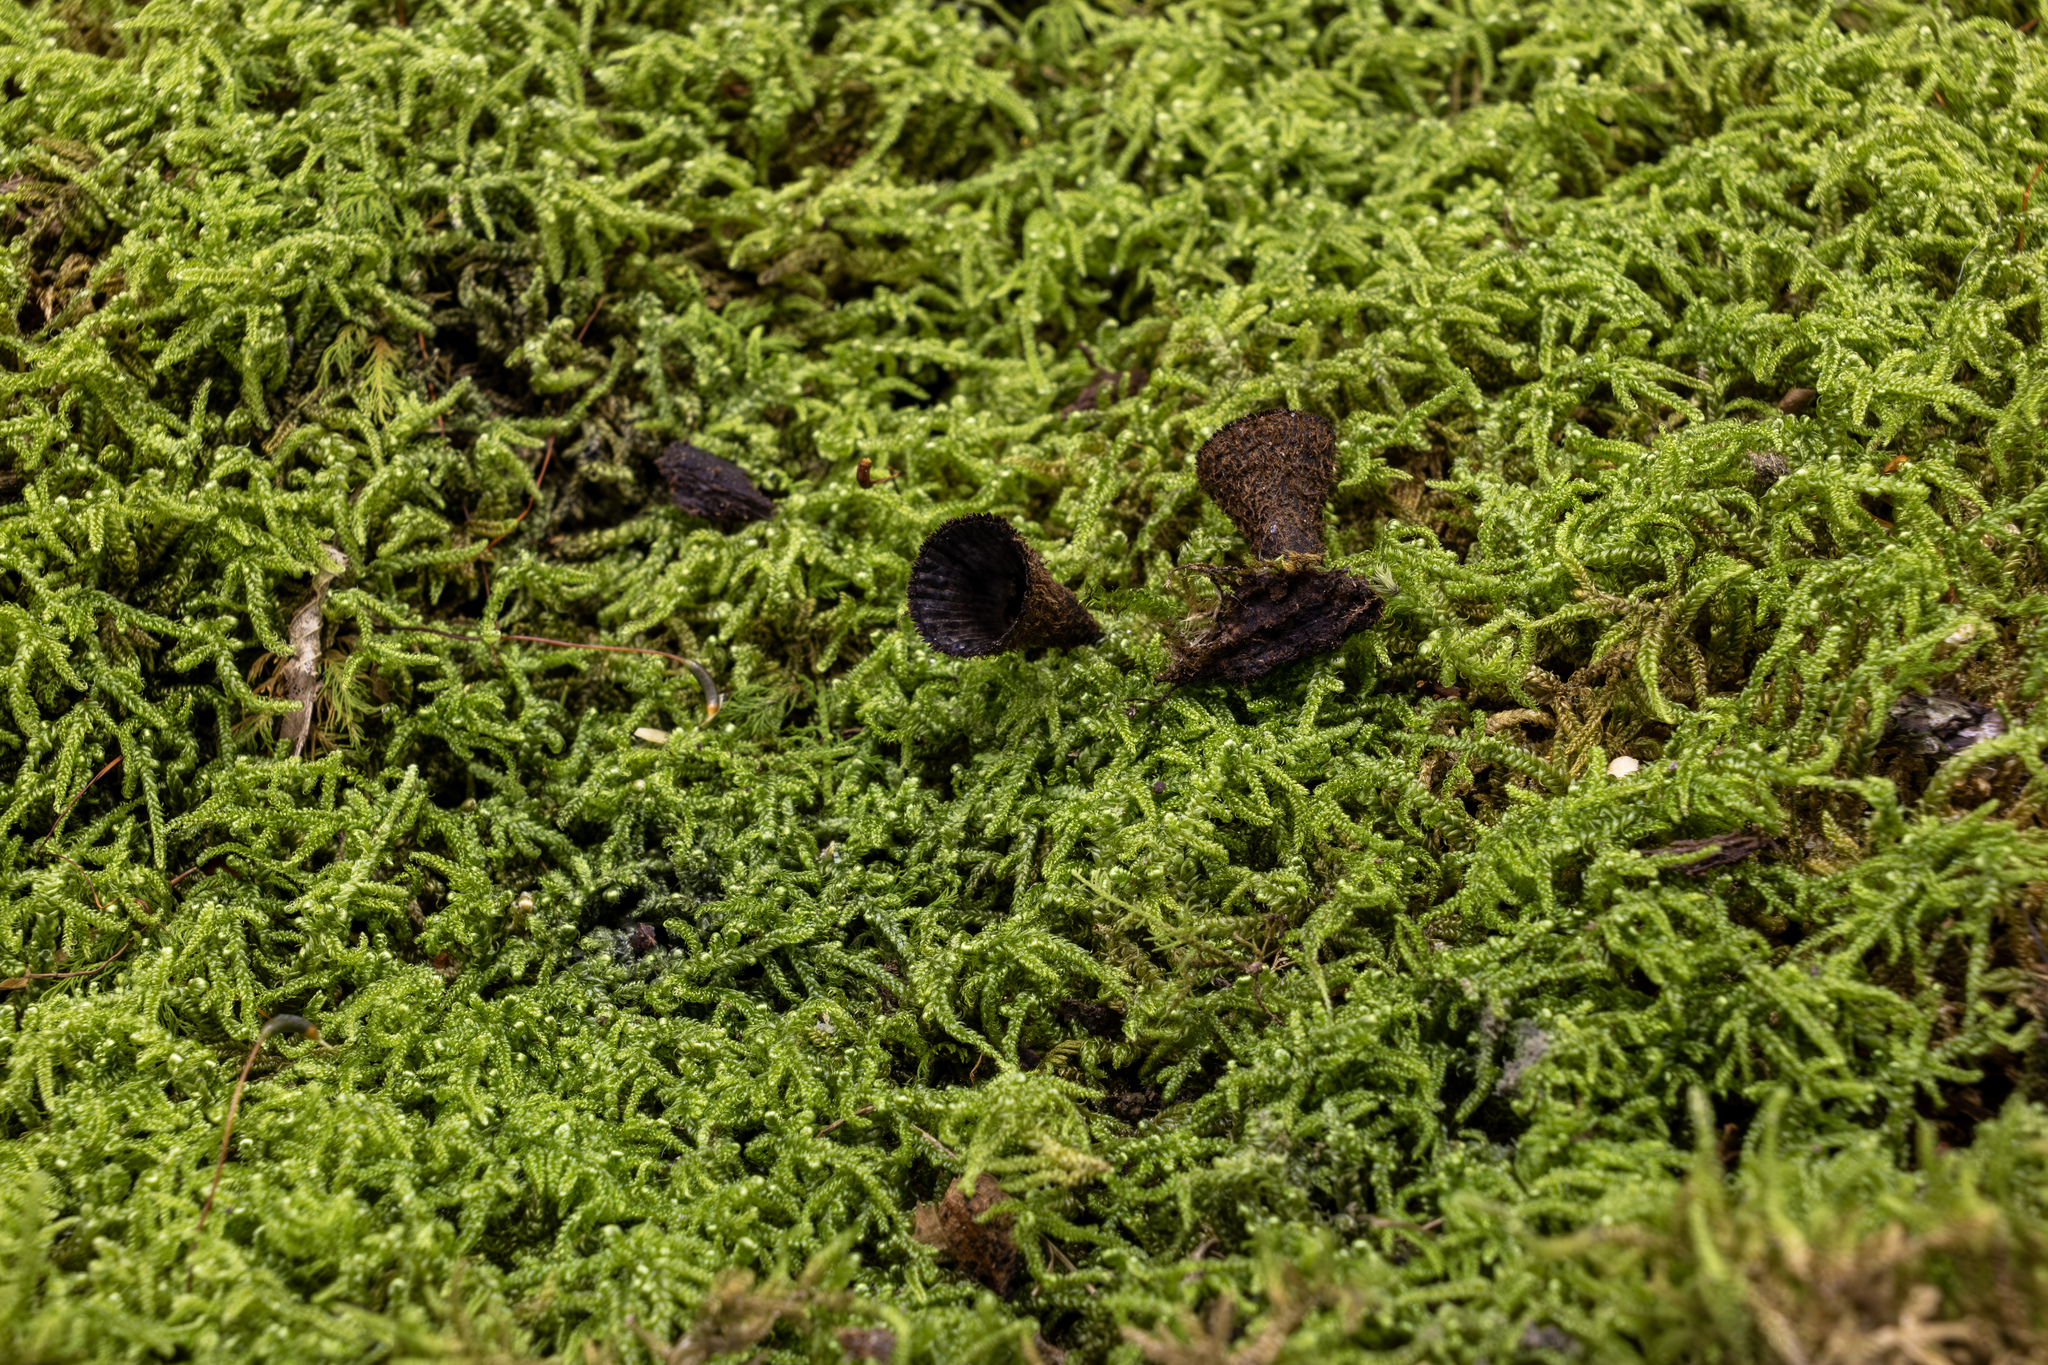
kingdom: Fungi
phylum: Basidiomycota
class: Agaricomycetes
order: Agaricales
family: Agaricaceae
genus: Cyathus
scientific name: Cyathus striatus
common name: Fluted bird's nest
